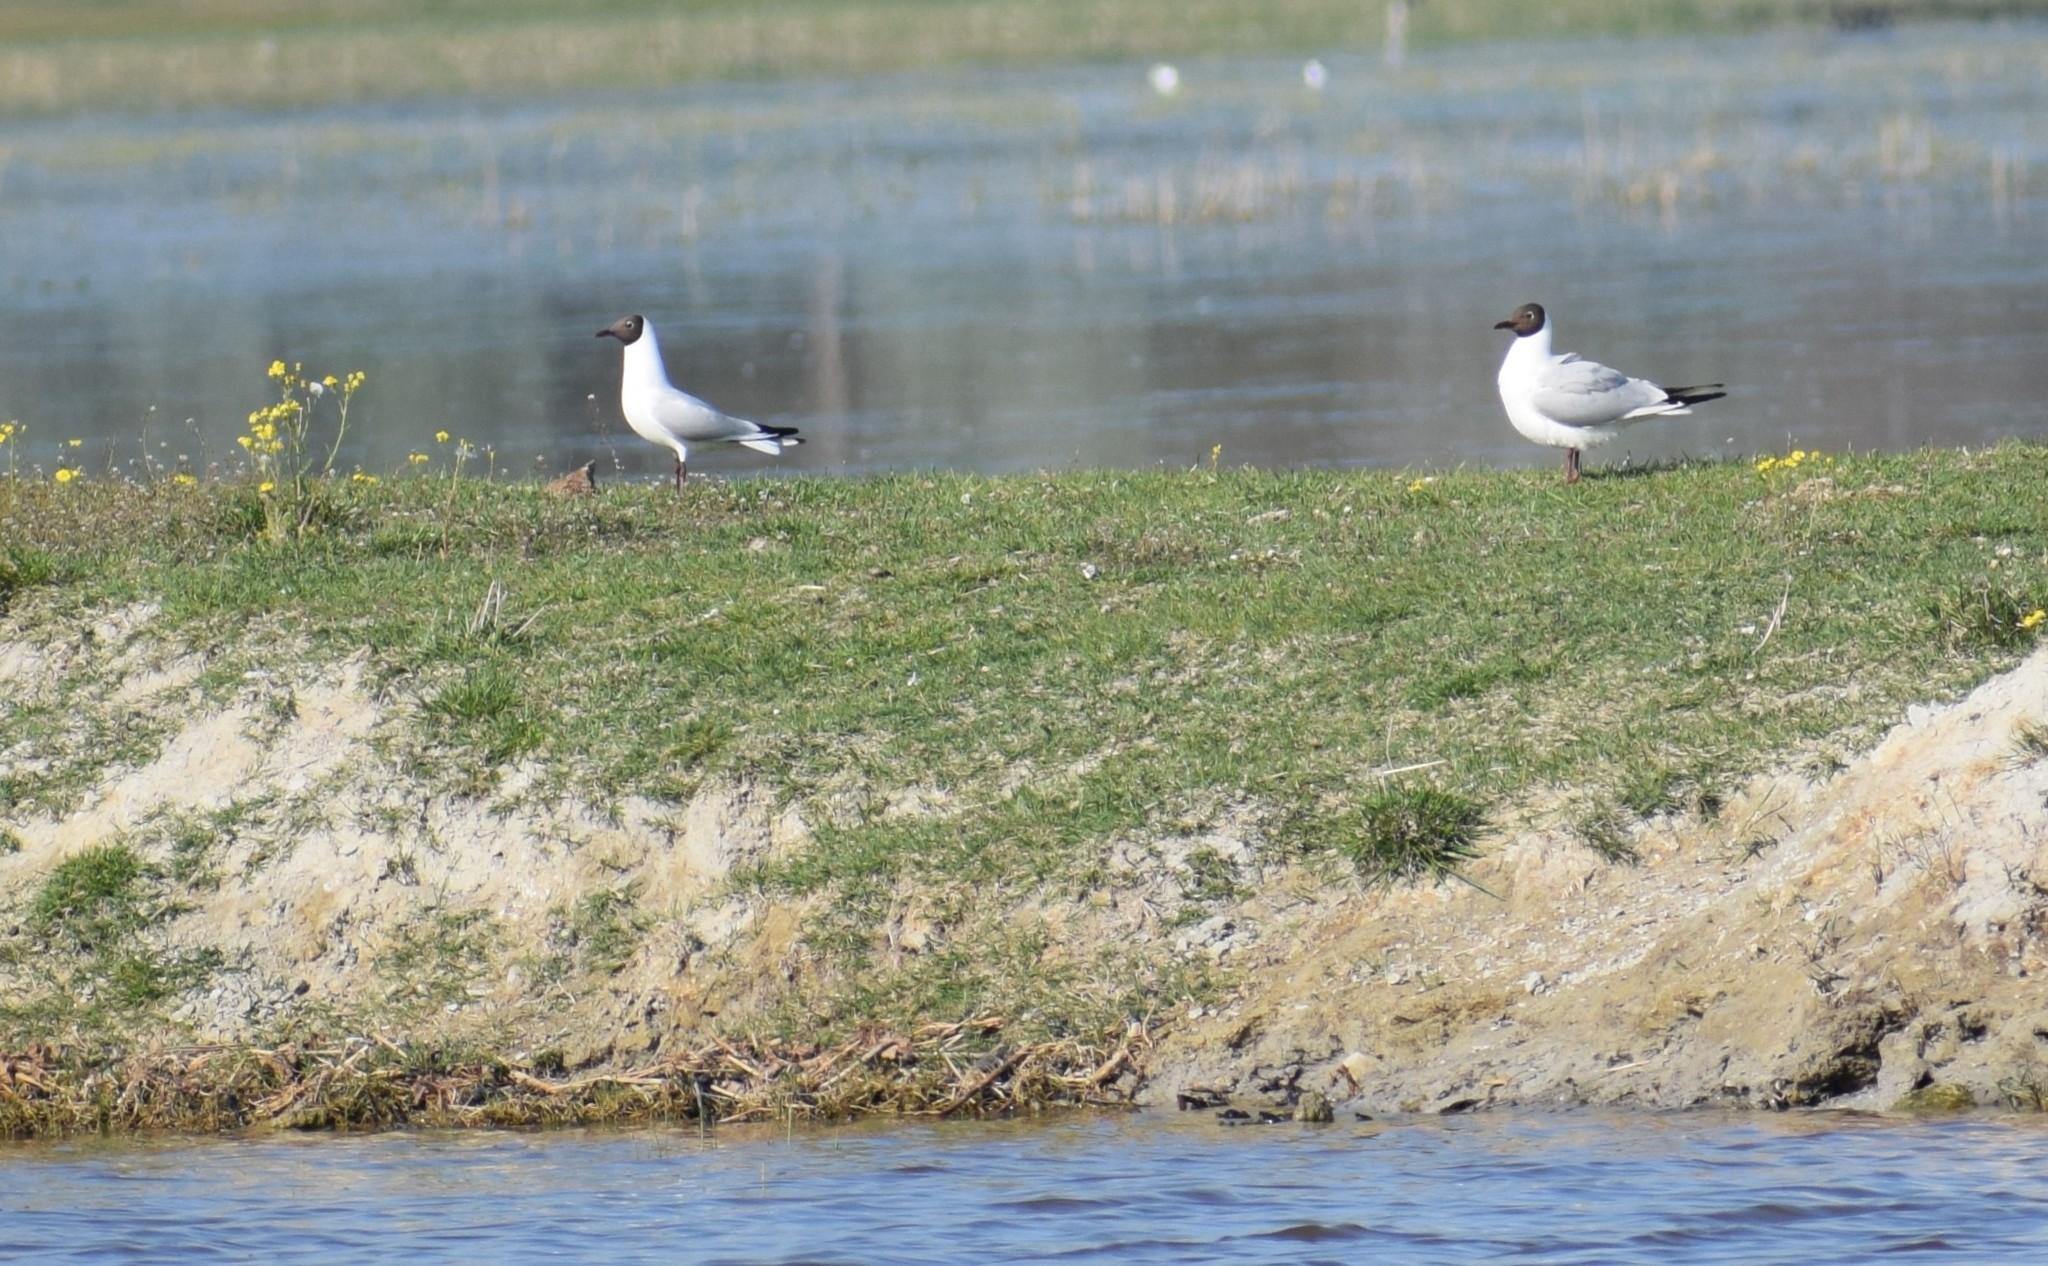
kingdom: Animalia
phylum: Chordata
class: Aves
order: Charadriiformes
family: Laridae
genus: Chroicocephalus
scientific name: Chroicocephalus ridibundus
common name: Black-headed gull
